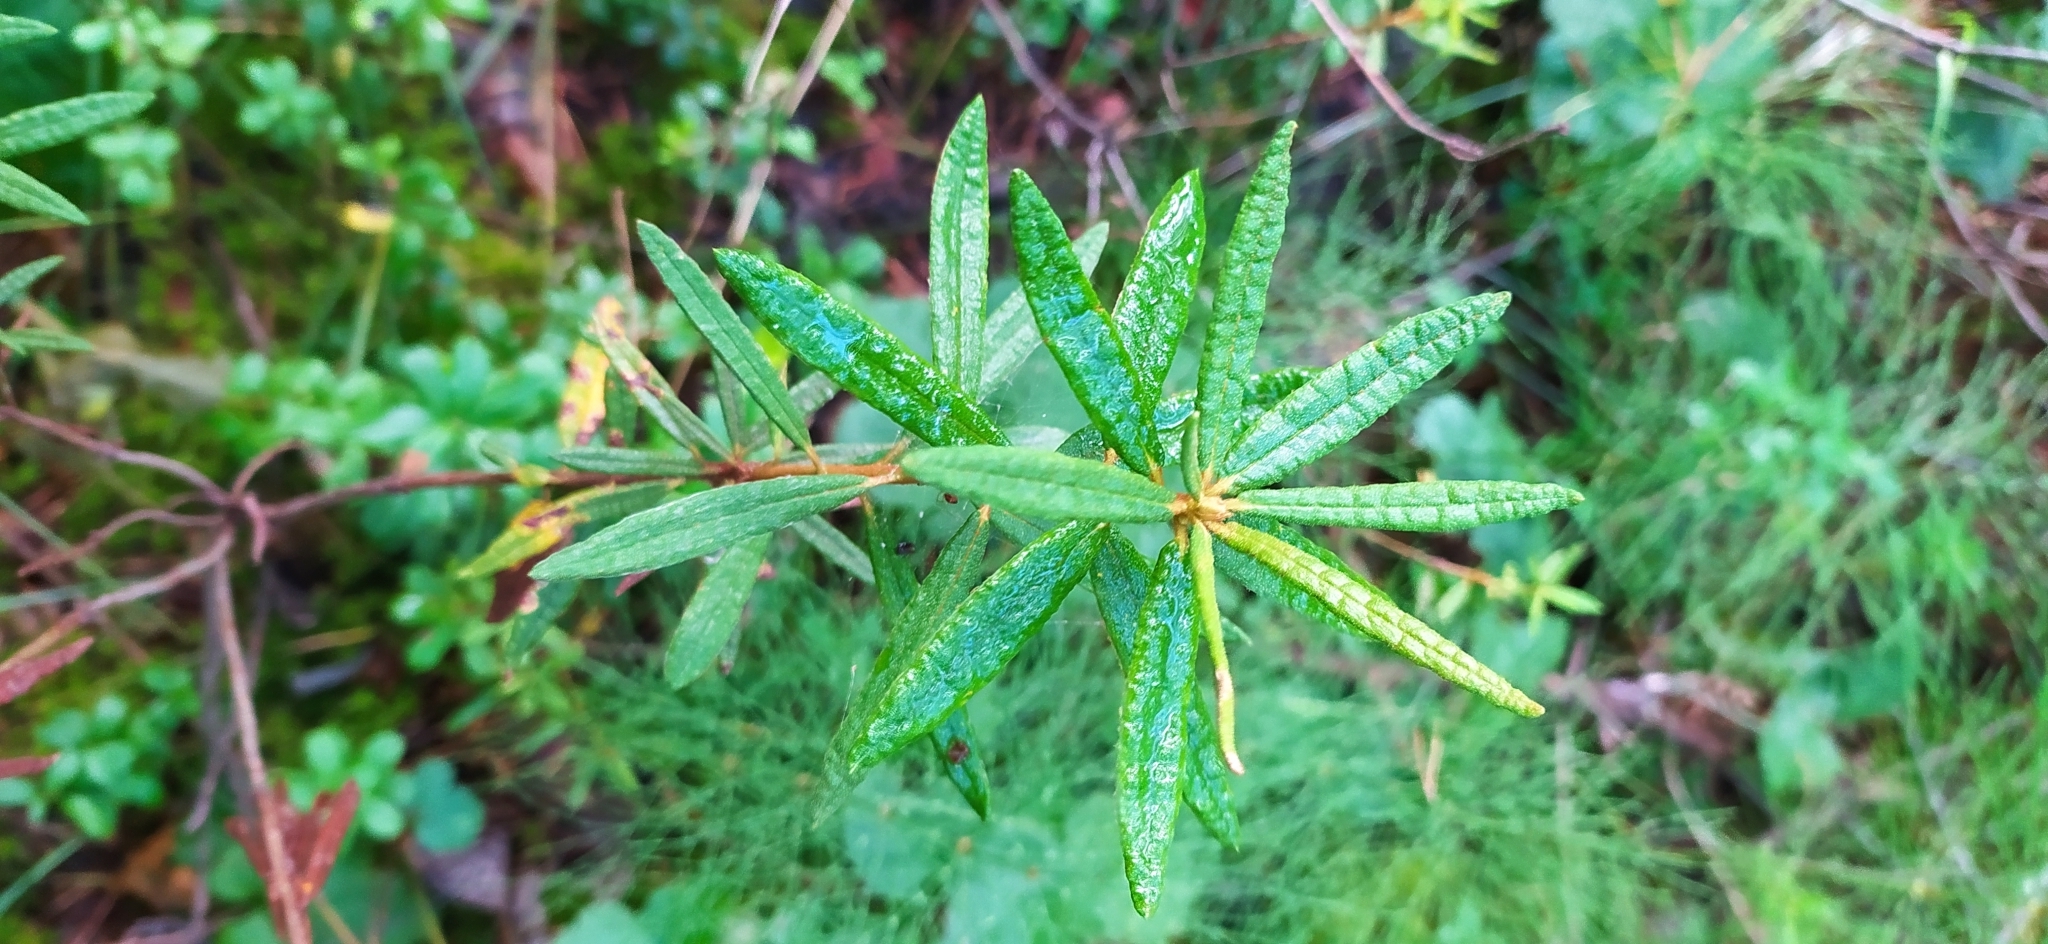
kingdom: Plantae
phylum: Tracheophyta
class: Magnoliopsida
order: Ericales
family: Ericaceae
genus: Rhododendron
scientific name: Rhododendron tomentosum
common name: Marsh labrador tea
